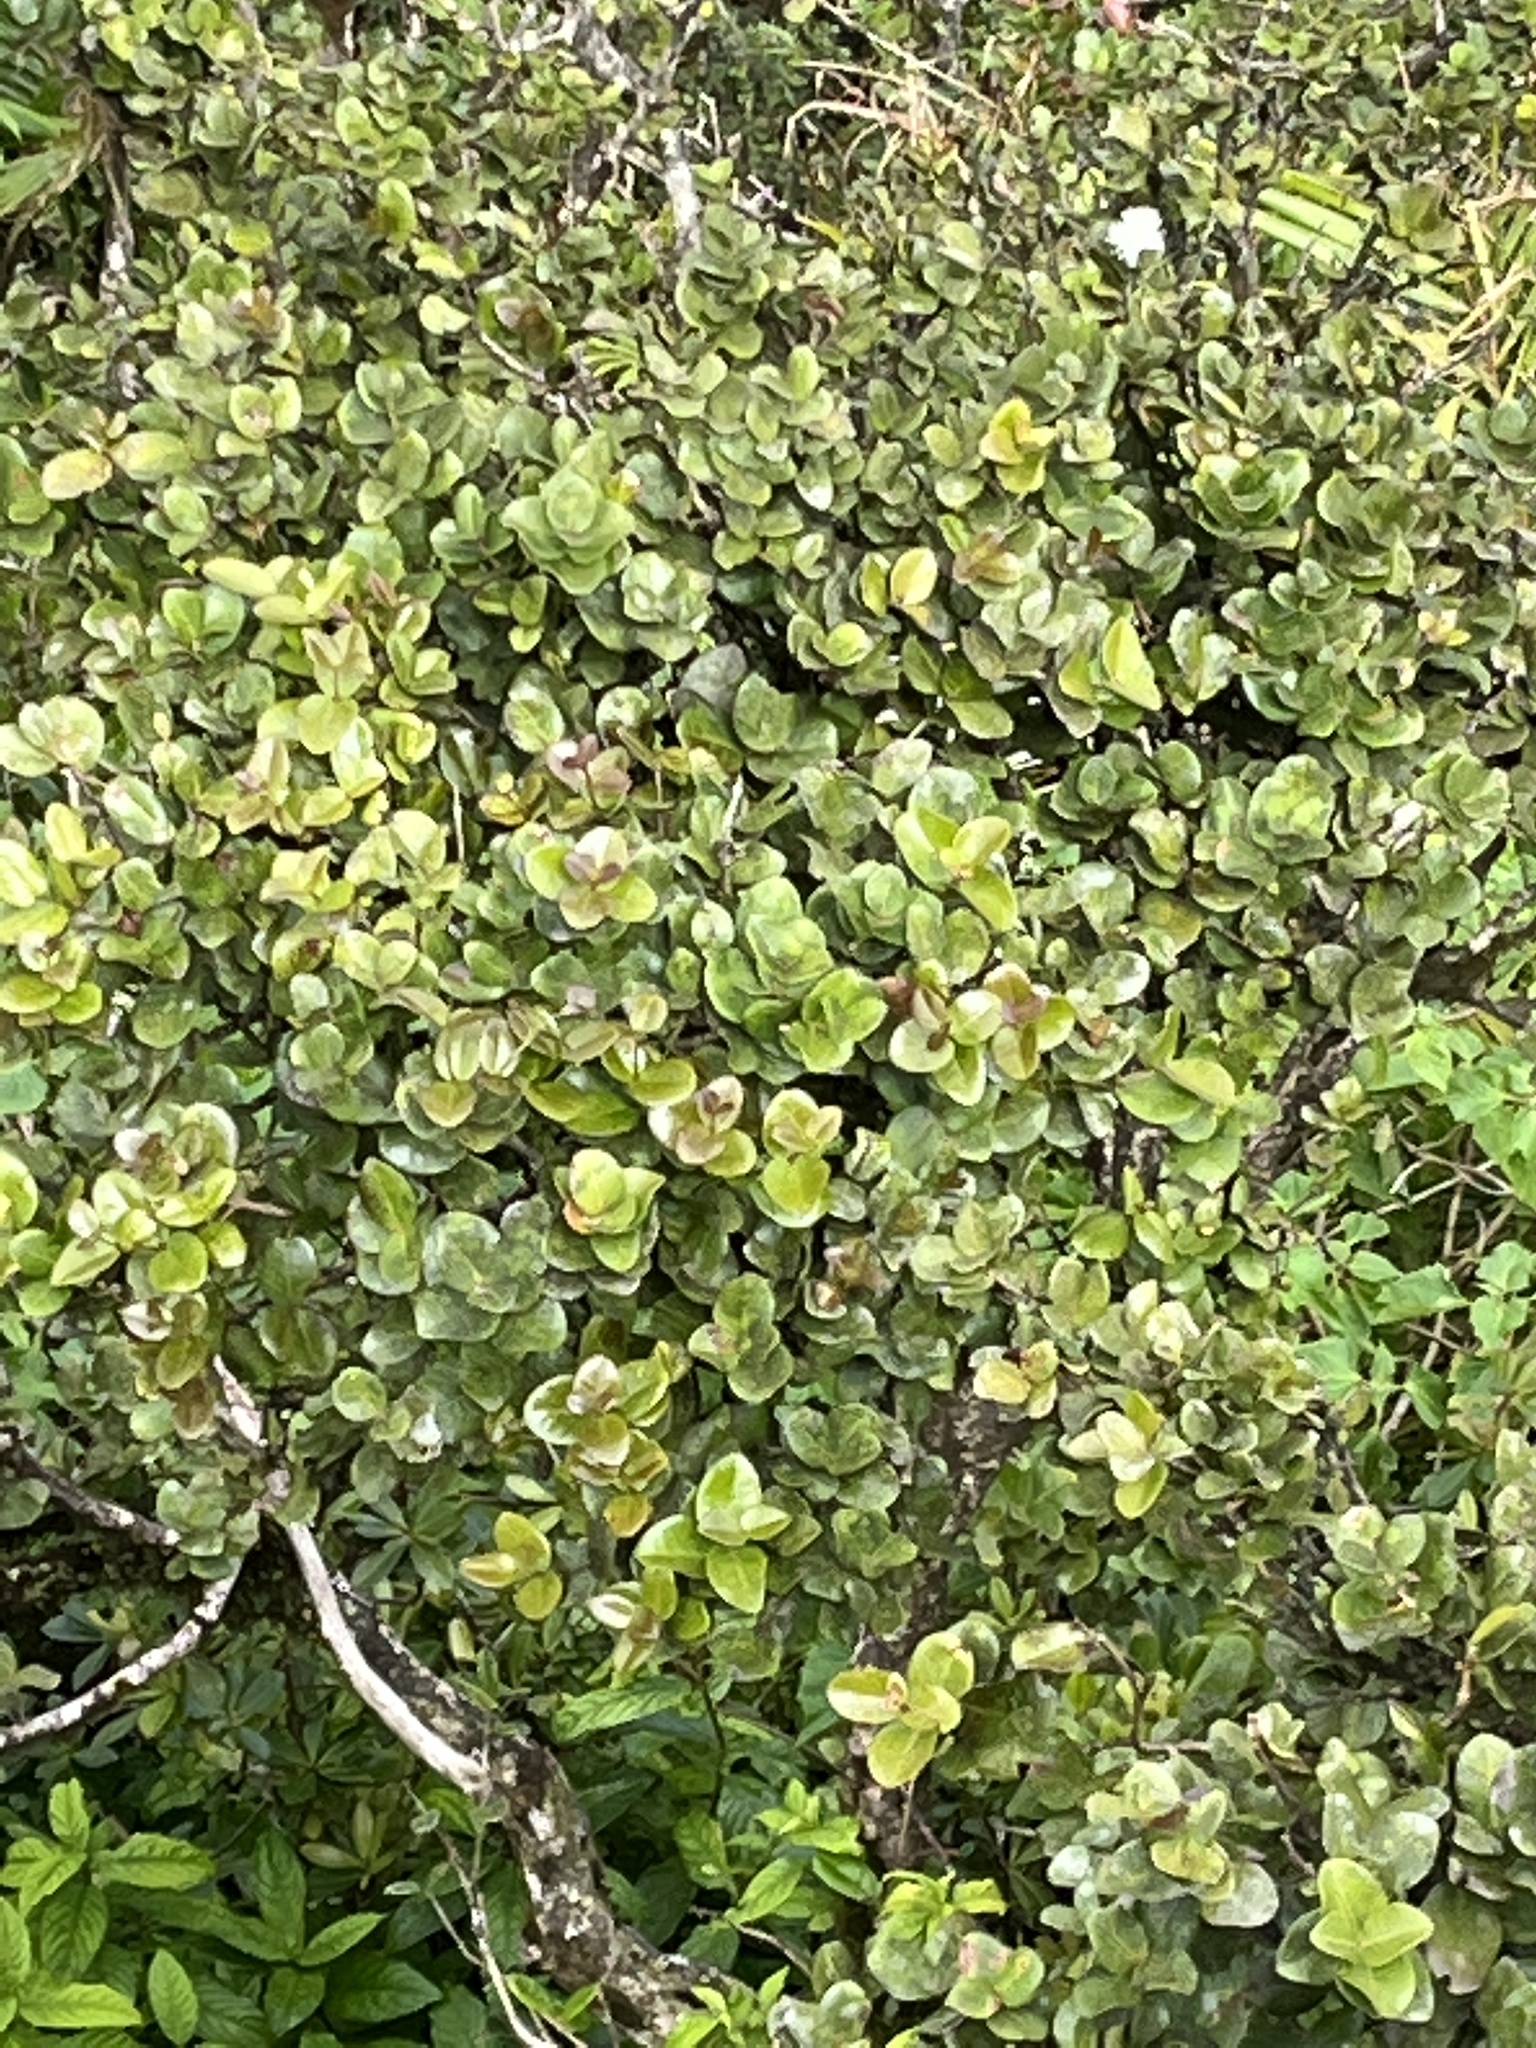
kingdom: Plantae
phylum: Tracheophyta
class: Magnoliopsida
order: Myrtales
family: Myrtaceae
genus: Eugenia
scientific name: Eugenia borinquensis
